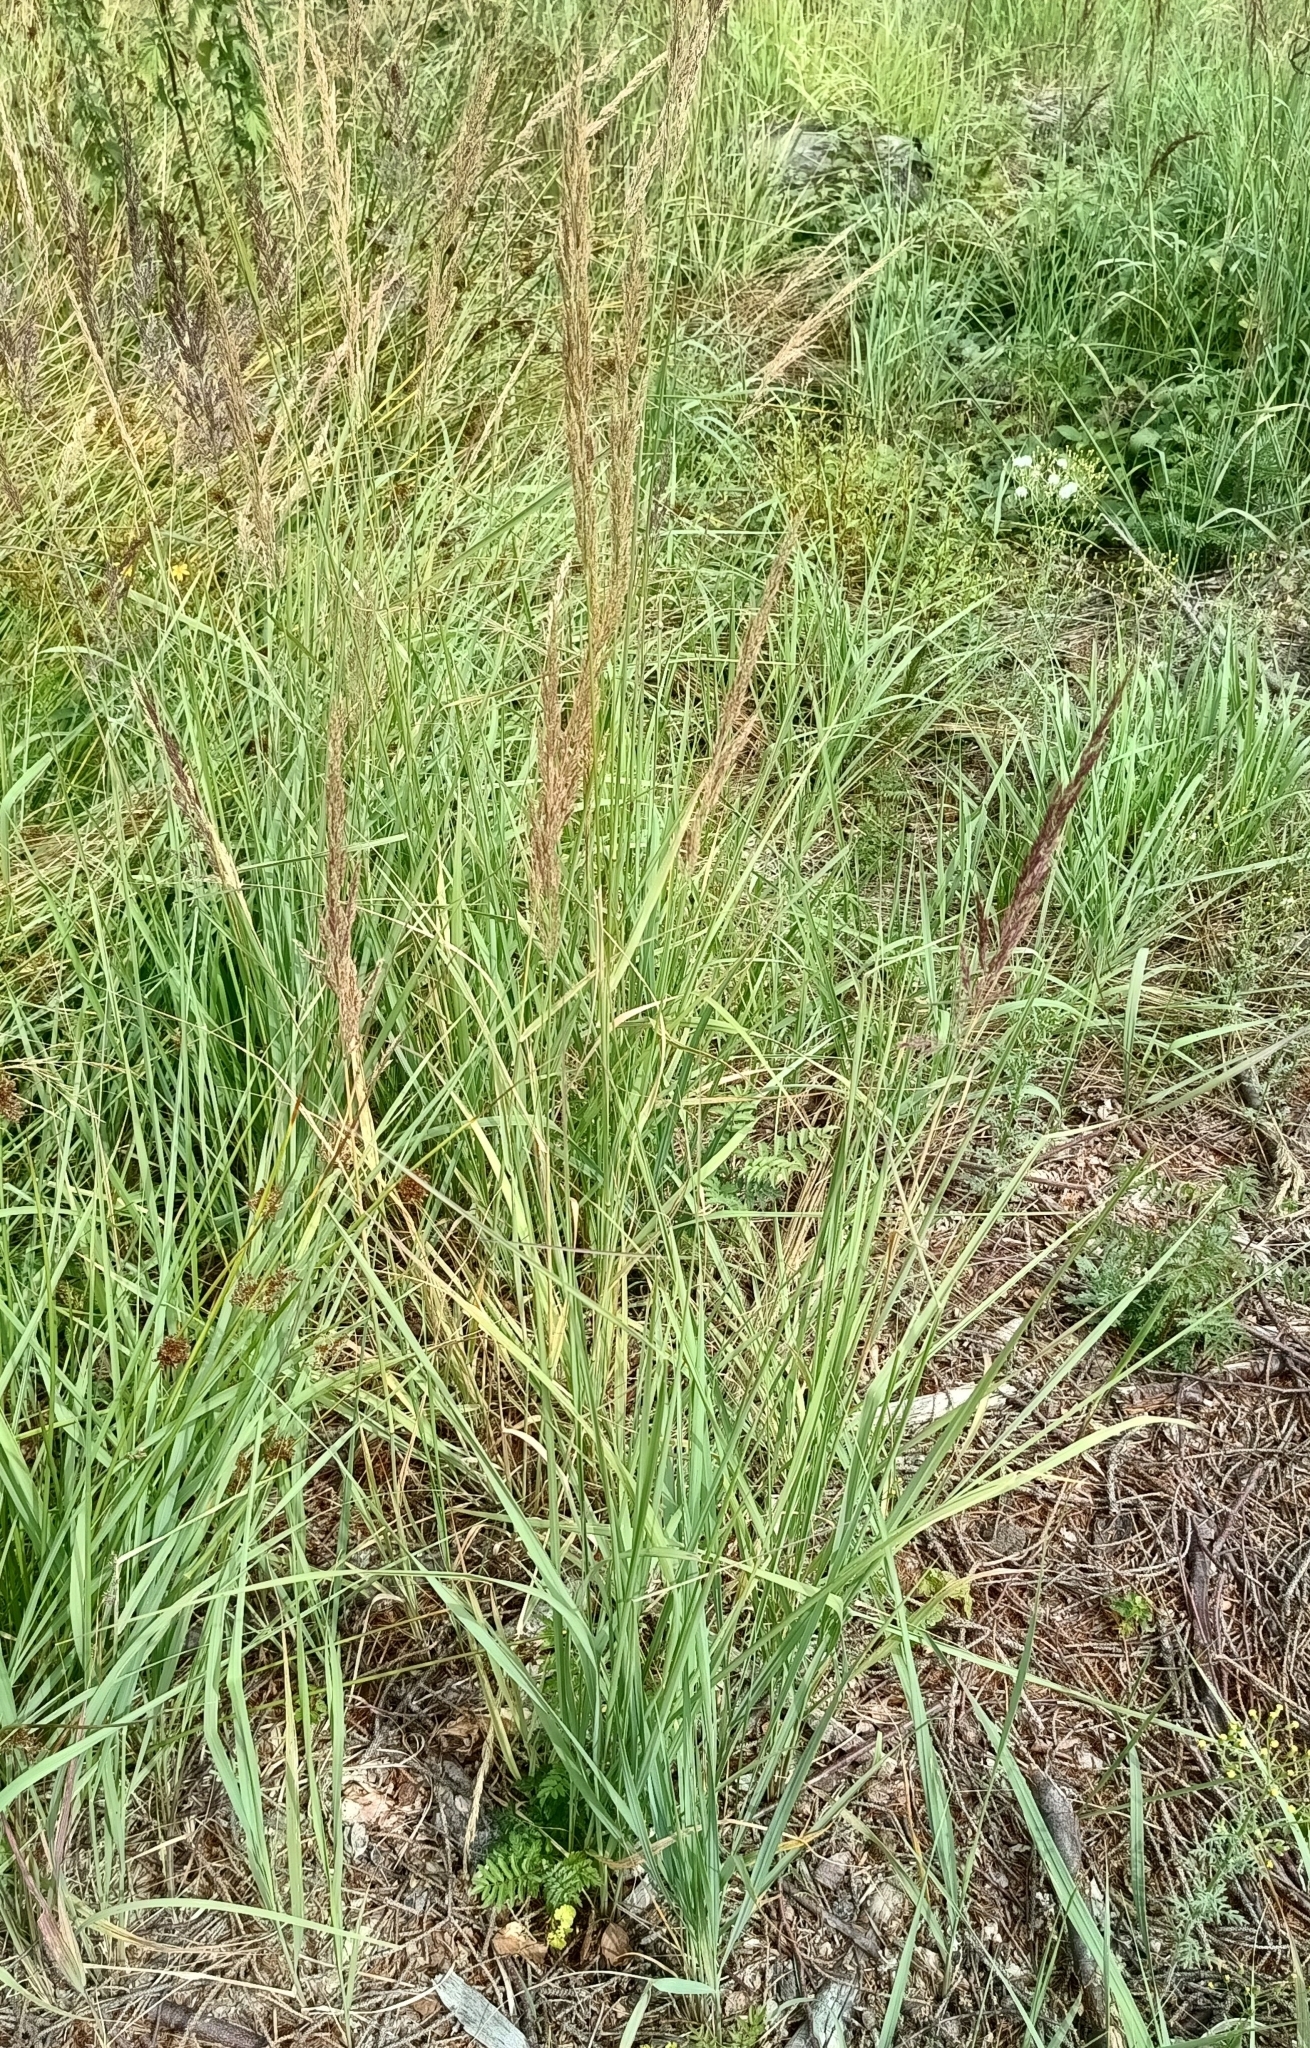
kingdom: Plantae
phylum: Tracheophyta
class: Liliopsida
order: Poales
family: Poaceae
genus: Calamagrostis
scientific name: Calamagrostis epigejos
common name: Wood small-reed
